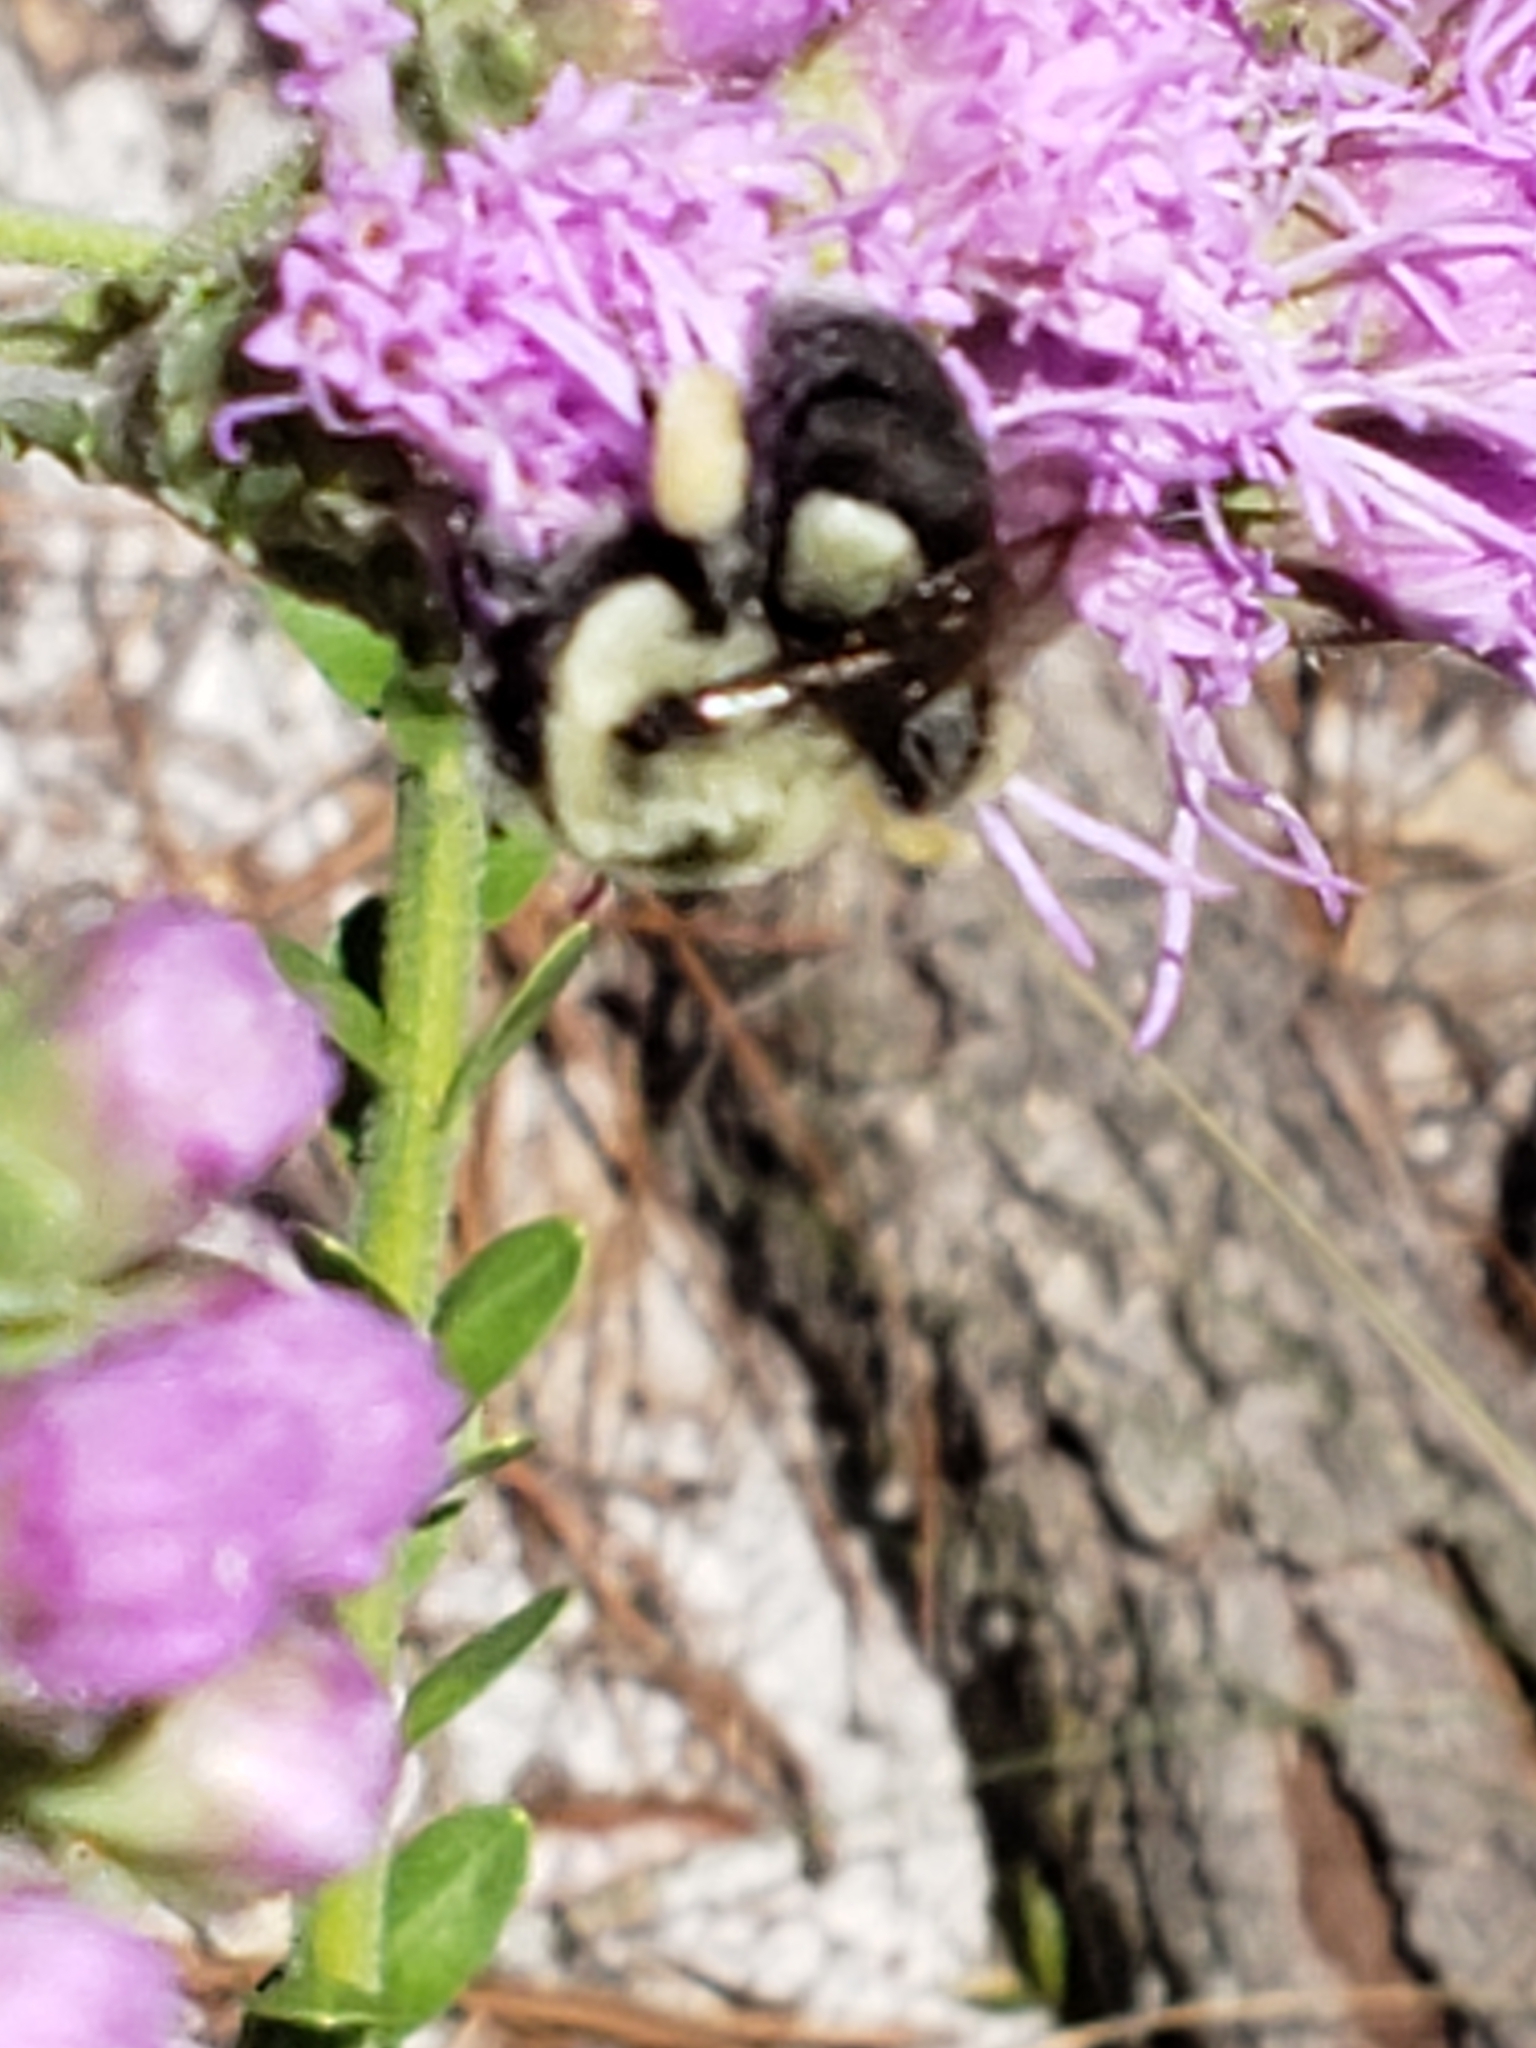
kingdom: Animalia
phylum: Arthropoda
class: Insecta
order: Hymenoptera
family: Apidae
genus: Bombus
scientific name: Bombus impatiens
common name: Common eastern bumble bee
